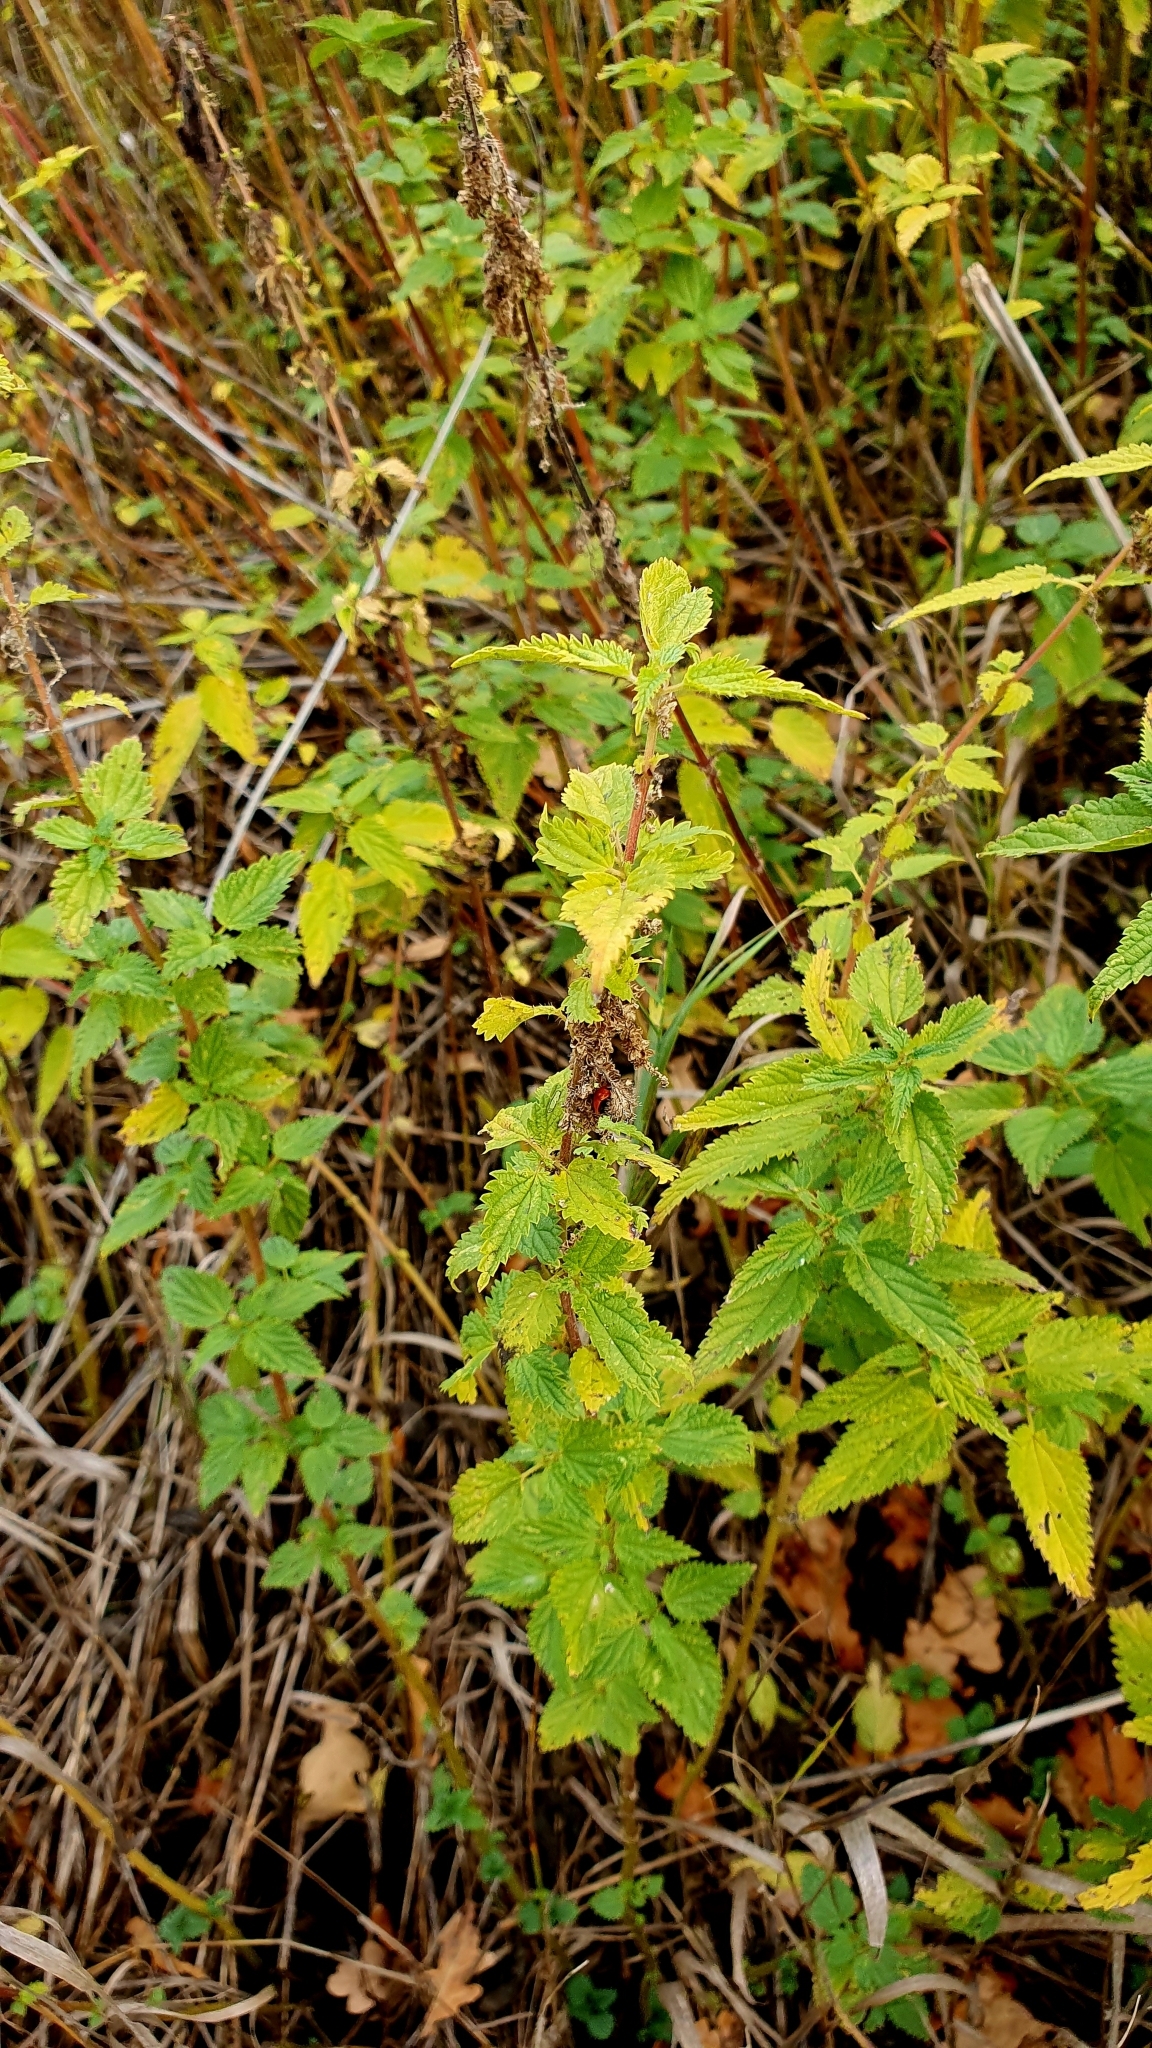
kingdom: Plantae
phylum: Tracheophyta
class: Magnoliopsida
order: Rosales
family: Urticaceae
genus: Urtica
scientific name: Urtica dioica
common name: Common nettle
